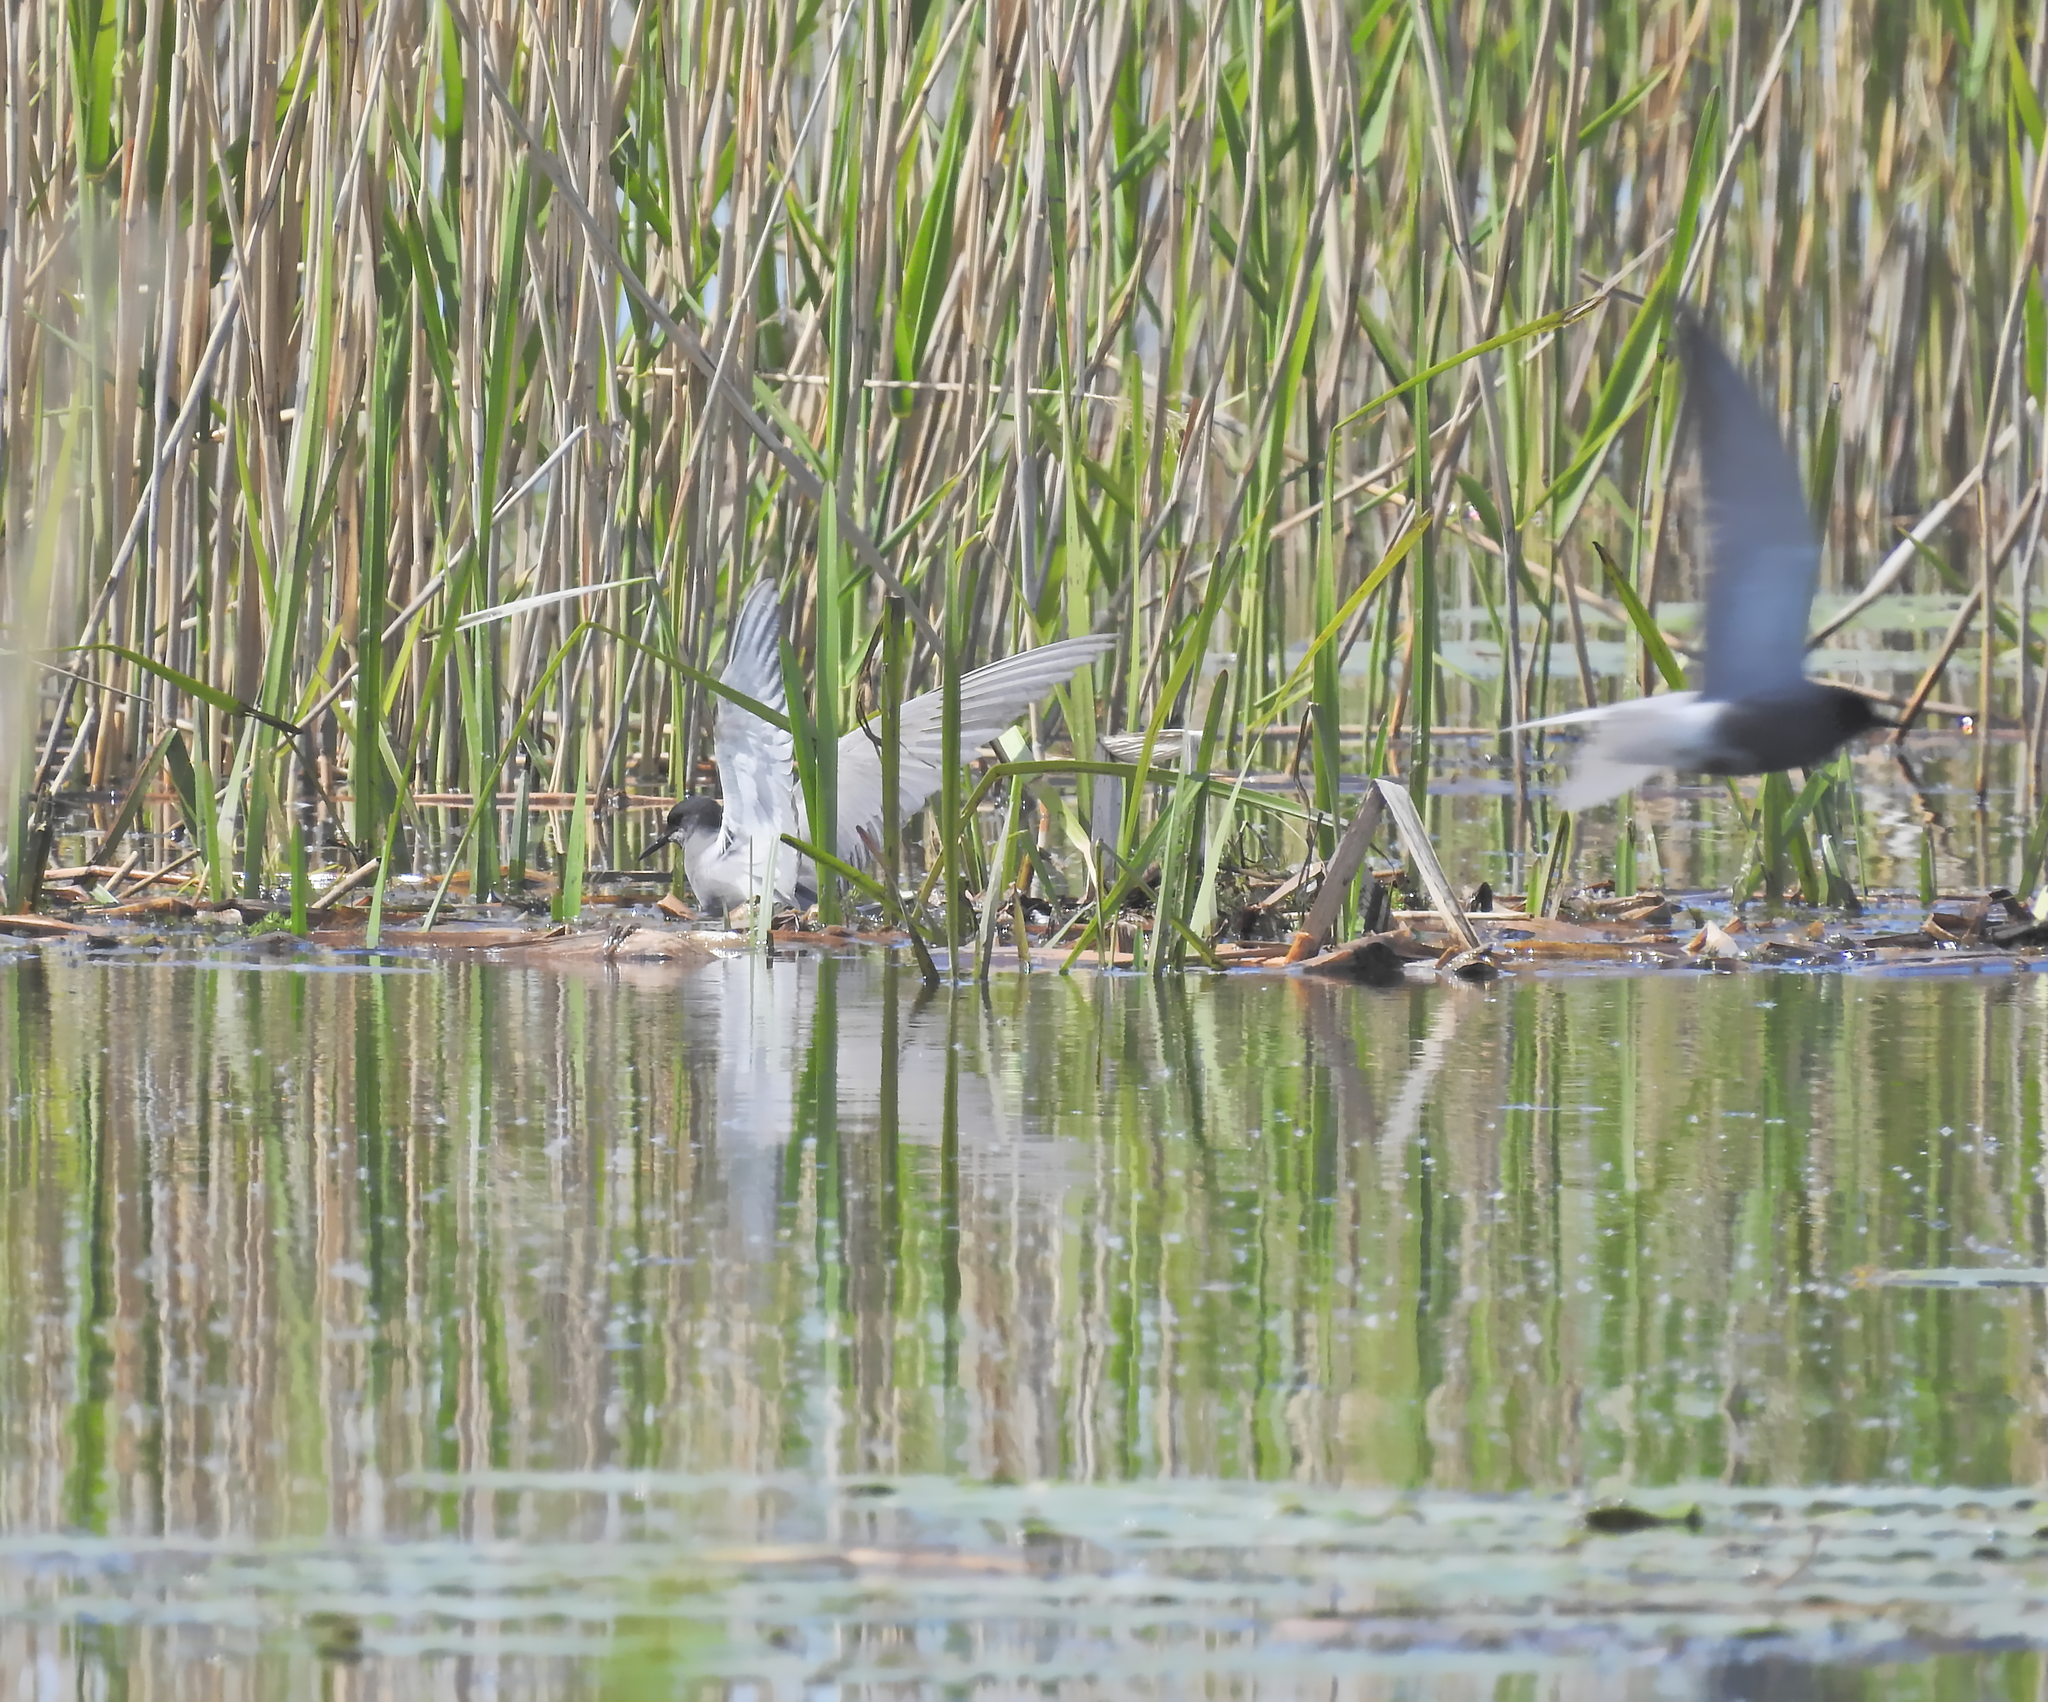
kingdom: Animalia
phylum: Chordata
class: Aves
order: Charadriiformes
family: Laridae
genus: Chlidonias
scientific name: Chlidonias niger
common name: Black tern
